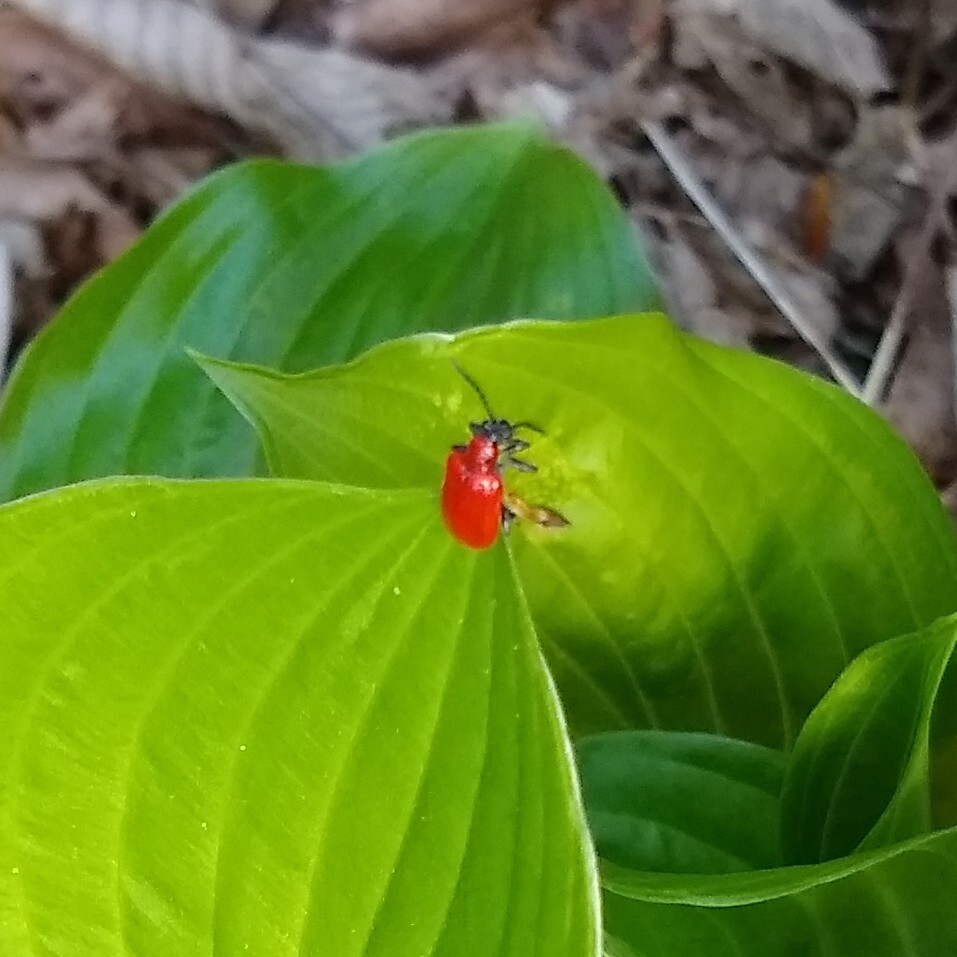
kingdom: Animalia
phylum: Arthropoda
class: Insecta
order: Coleoptera
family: Chrysomelidae
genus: Lilioceris
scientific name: Lilioceris lilii
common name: Lily beetle
